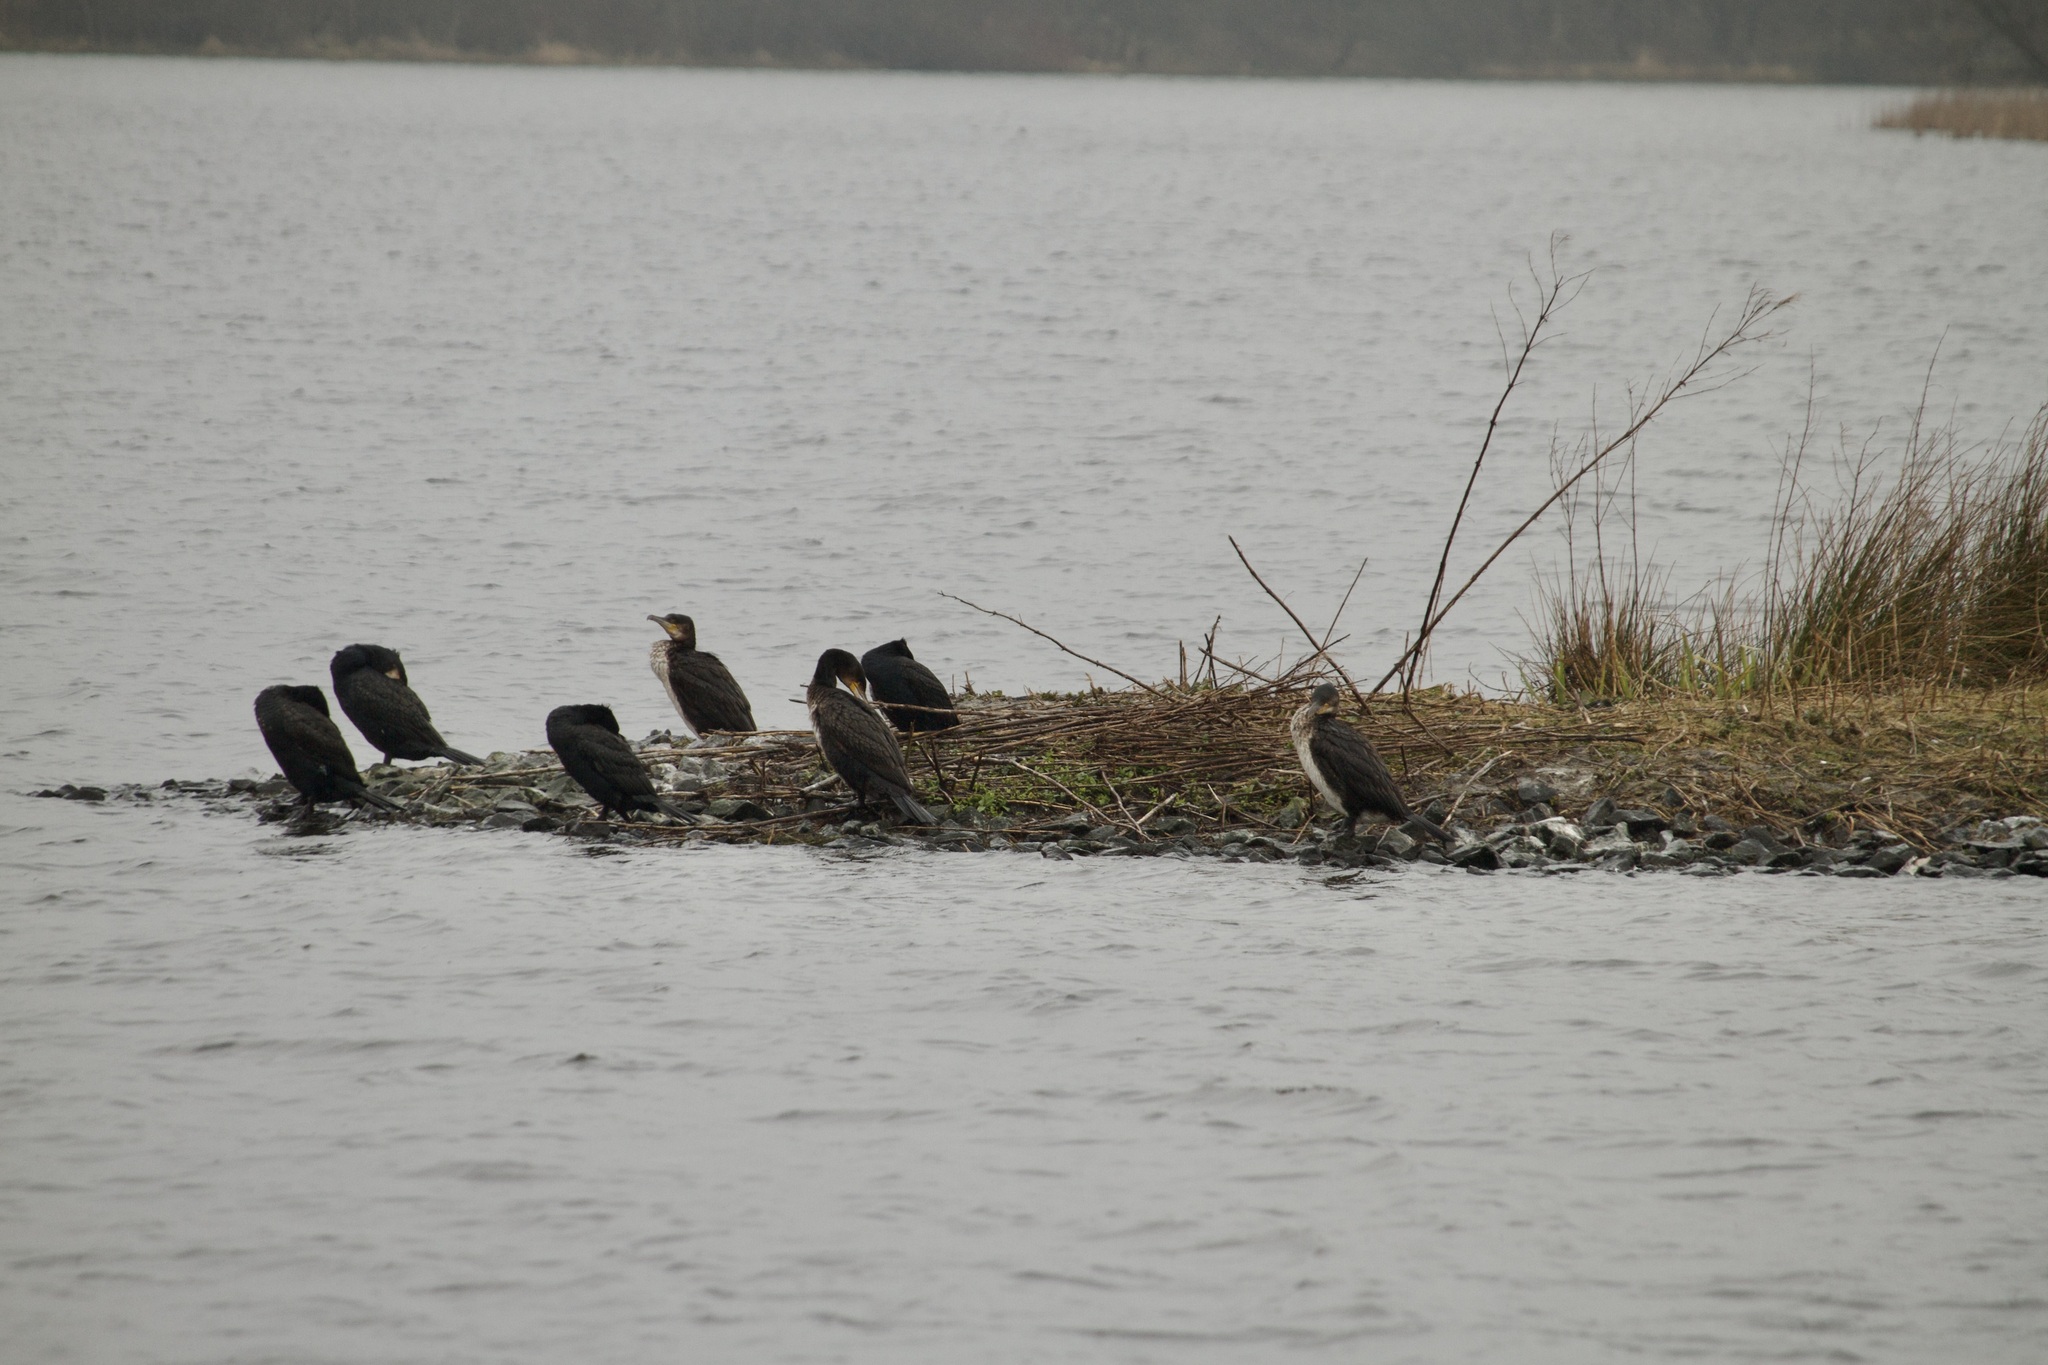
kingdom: Animalia
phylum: Chordata
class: Aves
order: Suliformes
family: Phalacrocoracidae
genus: Phalacrocorax
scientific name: Phalacrocorax carbo
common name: Great cormorant
